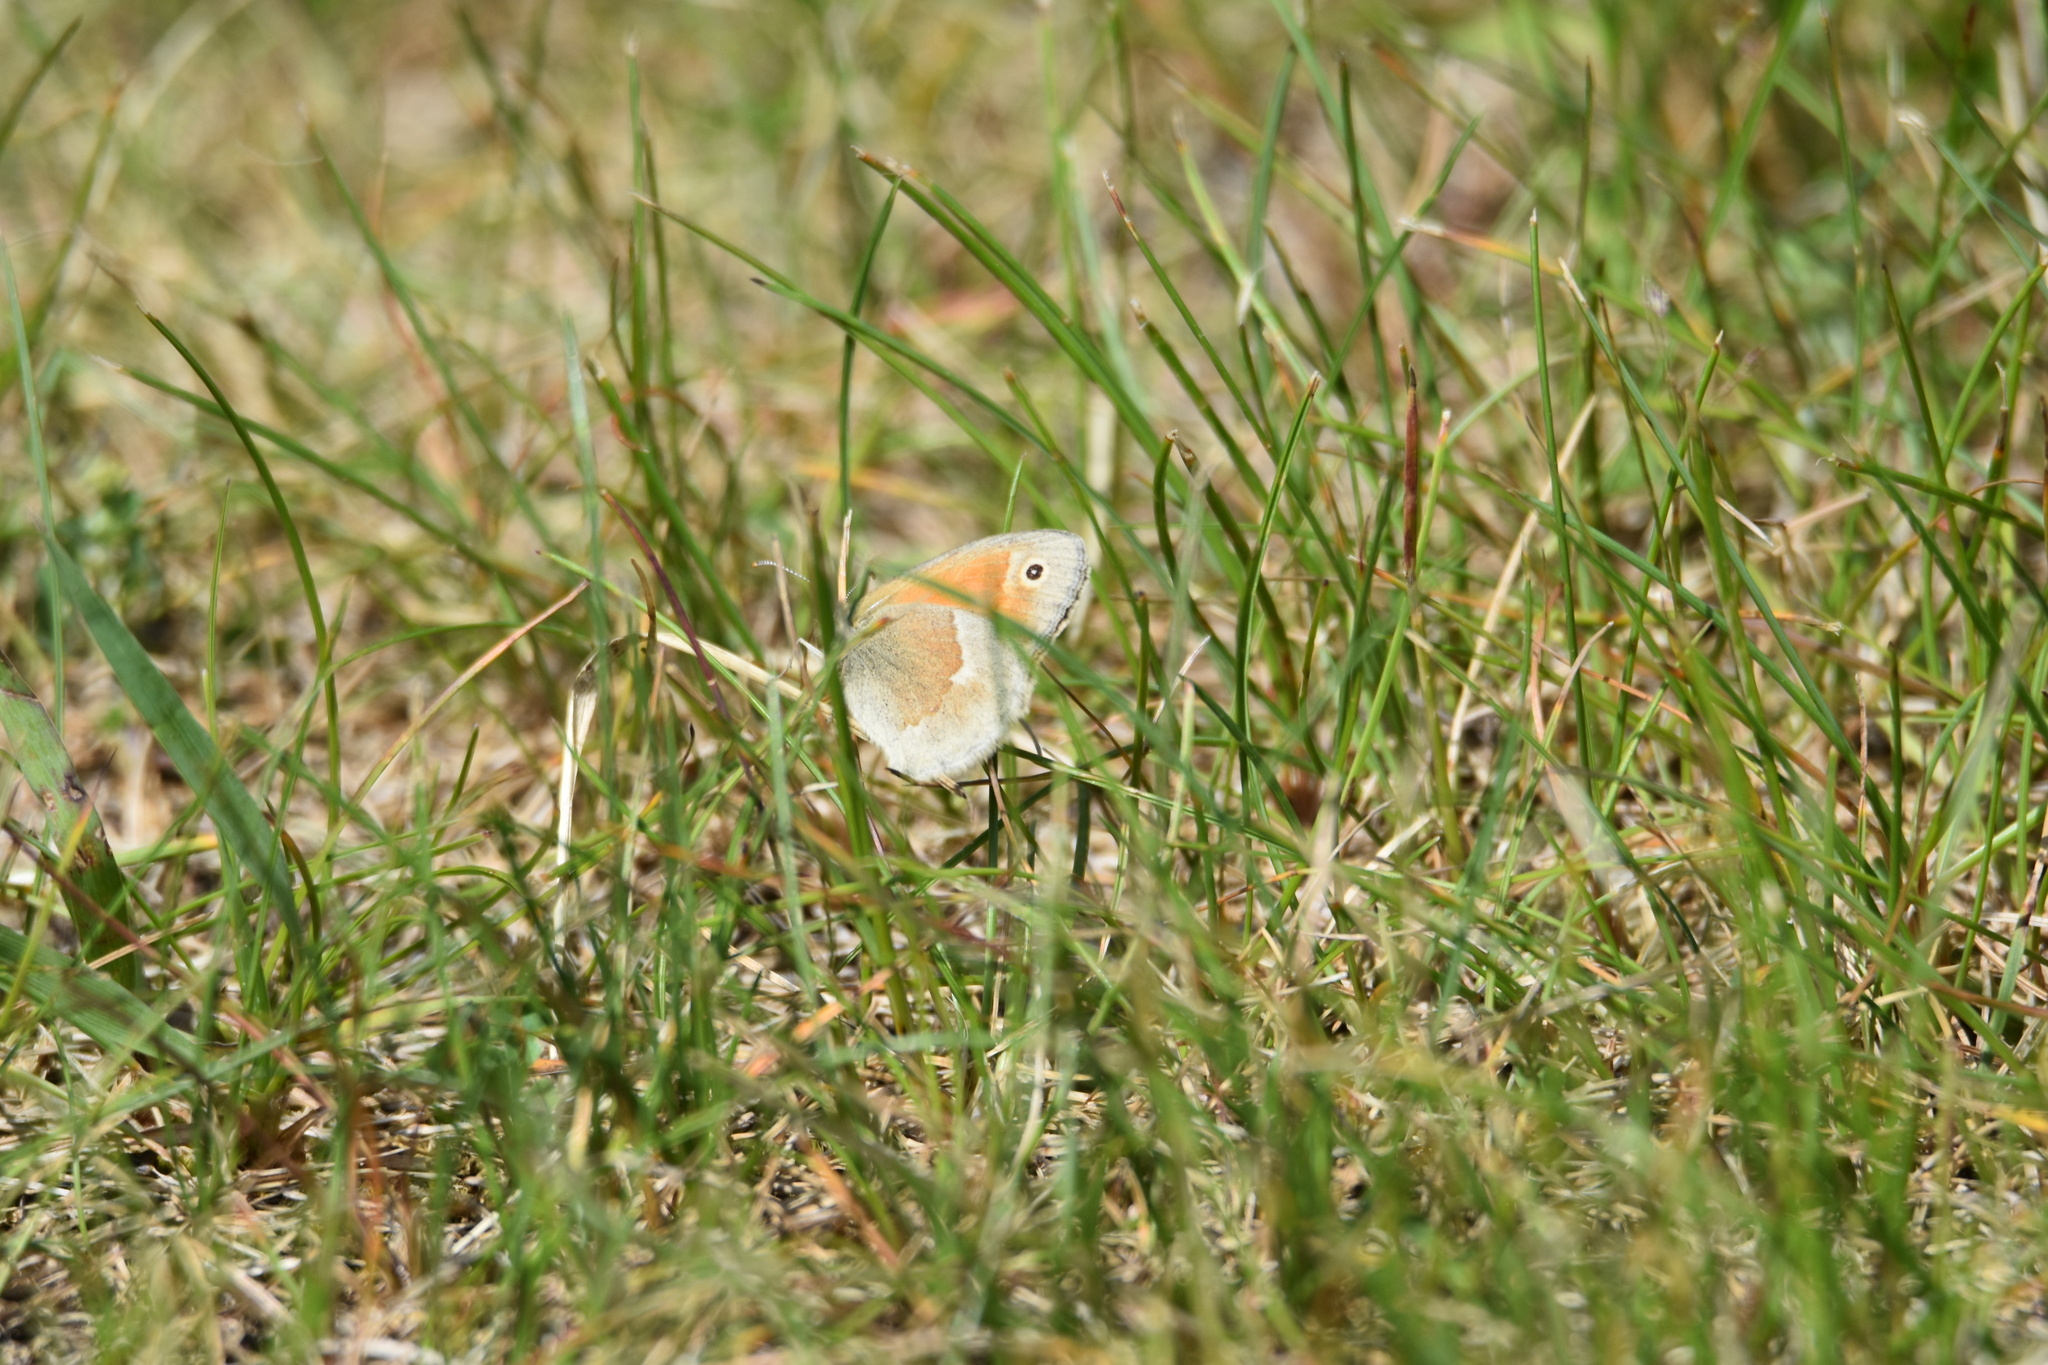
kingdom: Animalia
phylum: Arthropoda
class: Insecta
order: Lepidoptera
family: Nymphalidae
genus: Coenonympha
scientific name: Coenonympha california
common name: Common ringlet
